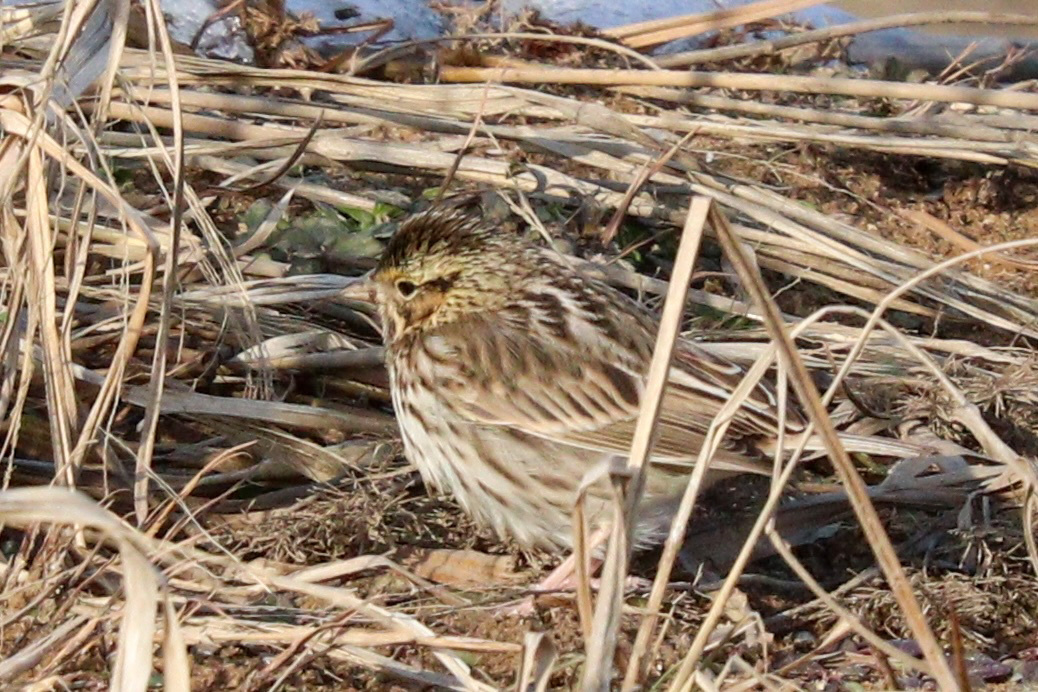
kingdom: Animalia
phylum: Chordata
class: Aves
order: Passeriformes
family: Passerellidae
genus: Passerculus
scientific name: Passerculus sandwichensis
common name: Savannah sparrow
